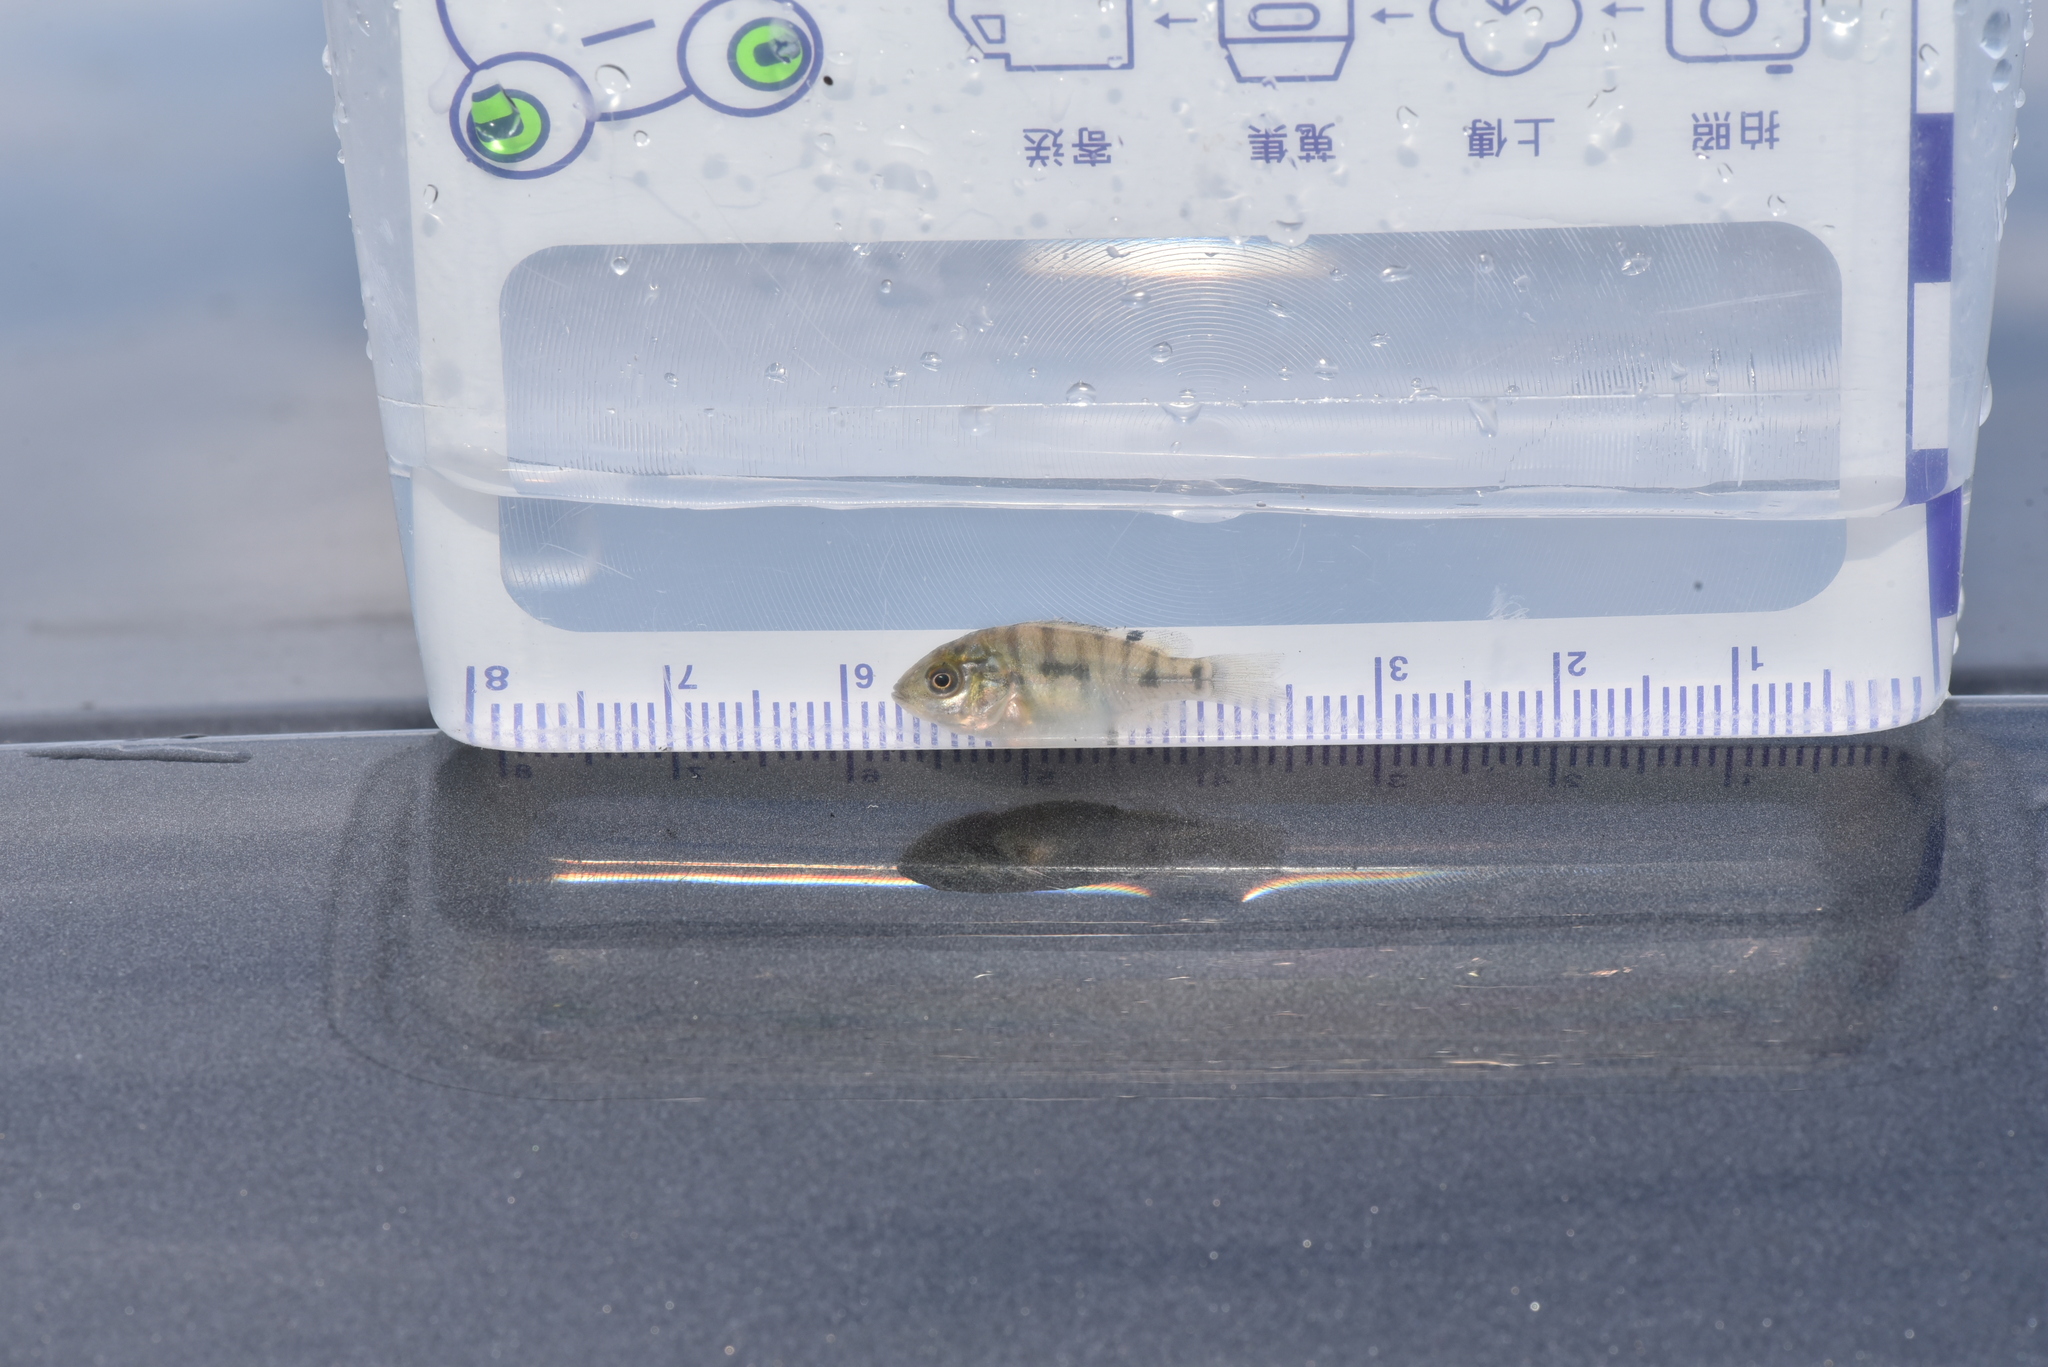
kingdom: Animalia
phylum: Chordata
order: Perciformes
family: Cichlidae
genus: Coptodon
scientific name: Coptodon zillii
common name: Redbelly tilapia
